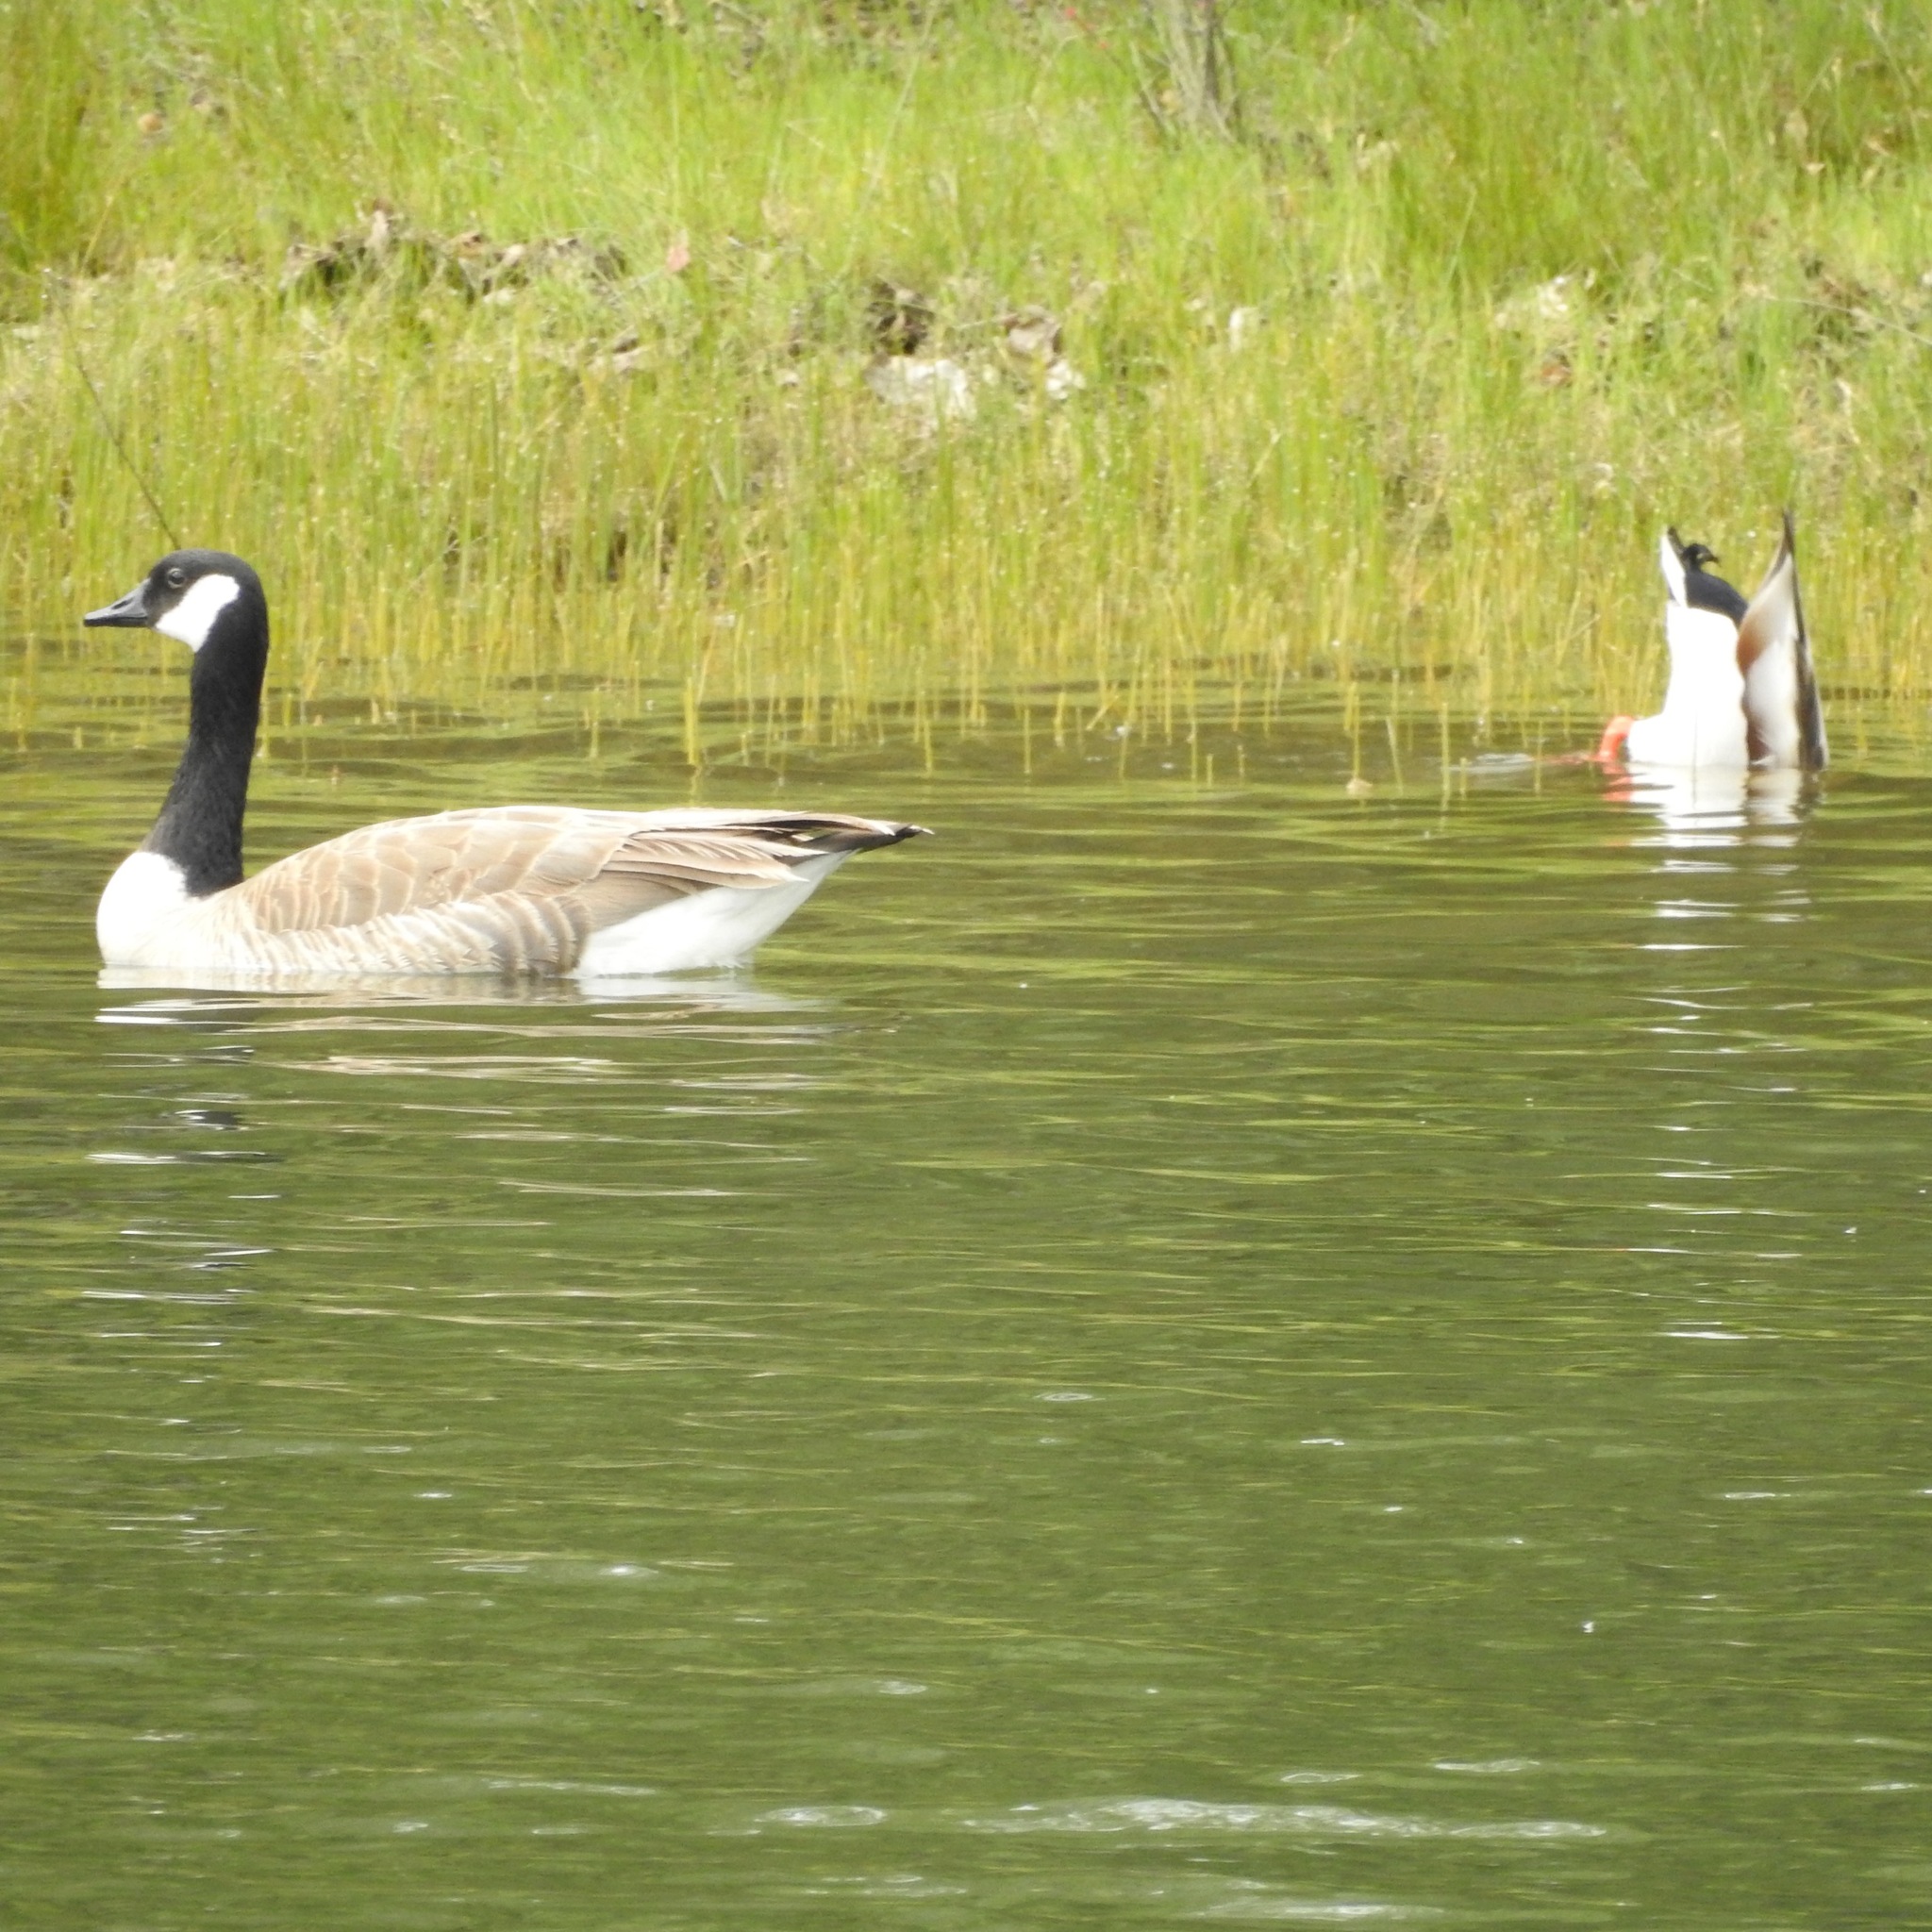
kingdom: Animalia
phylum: Chordata
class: Aves
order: Anseriformes
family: Anatidae
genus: Branta
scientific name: Branta canadensis
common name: Canada goose
